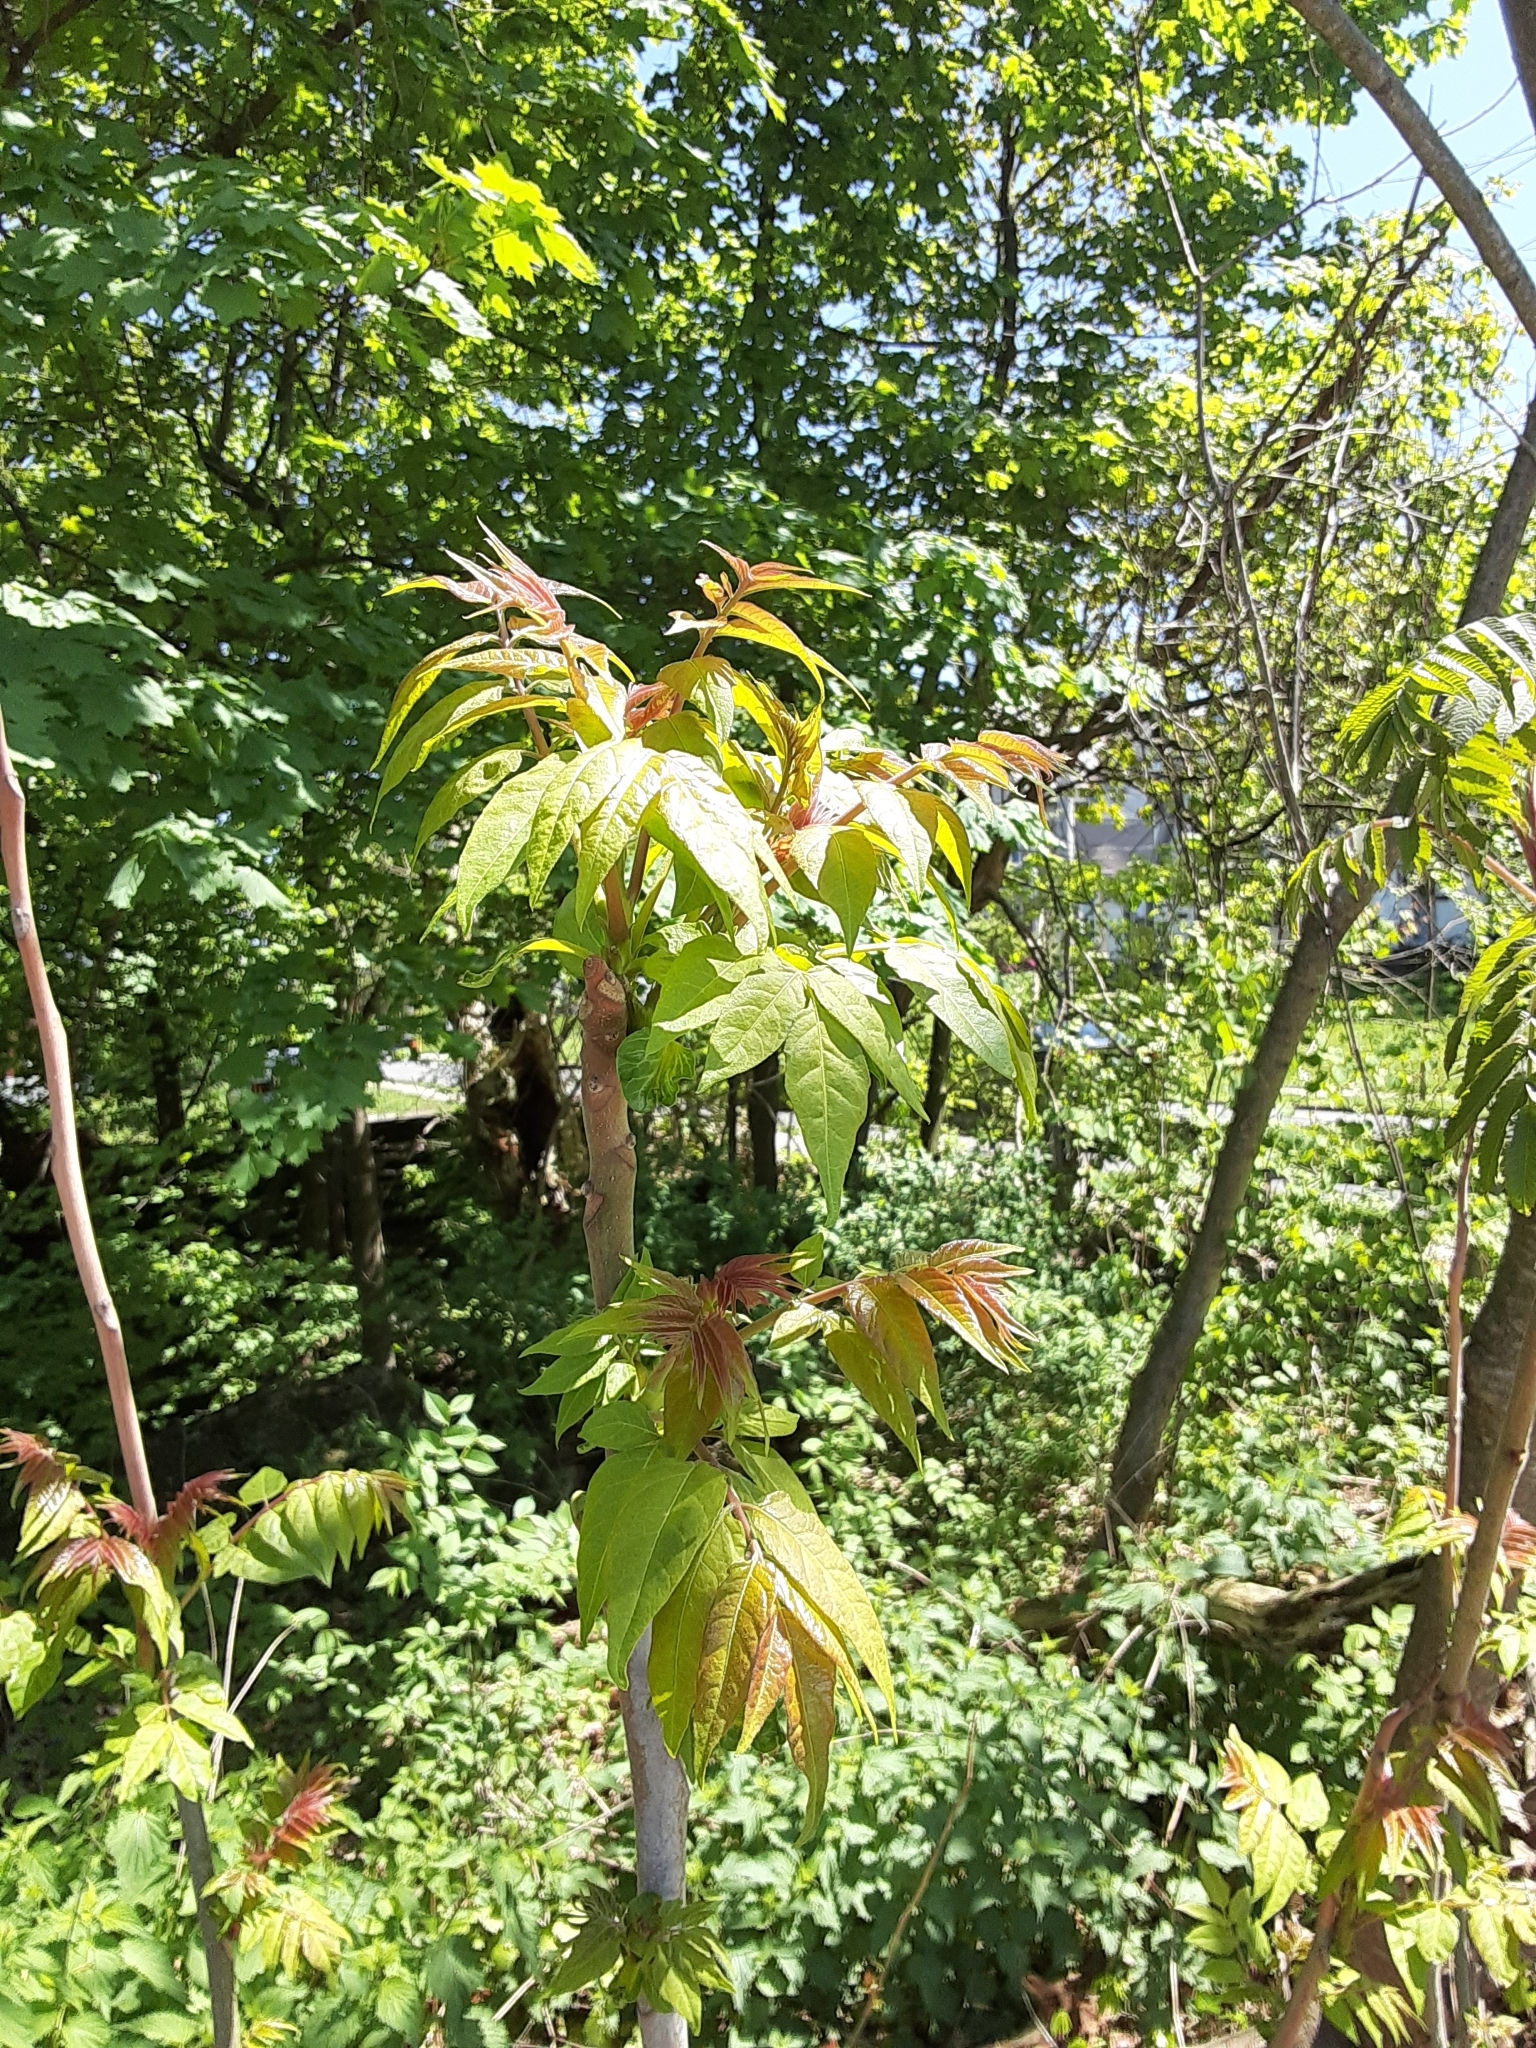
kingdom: Plantae
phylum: Tracheophyta
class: Magnoliopsida
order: Sapindales
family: Simaroubaceae
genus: Ailanthus
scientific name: Ailanthus altissima
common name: Tree-of-heaven
